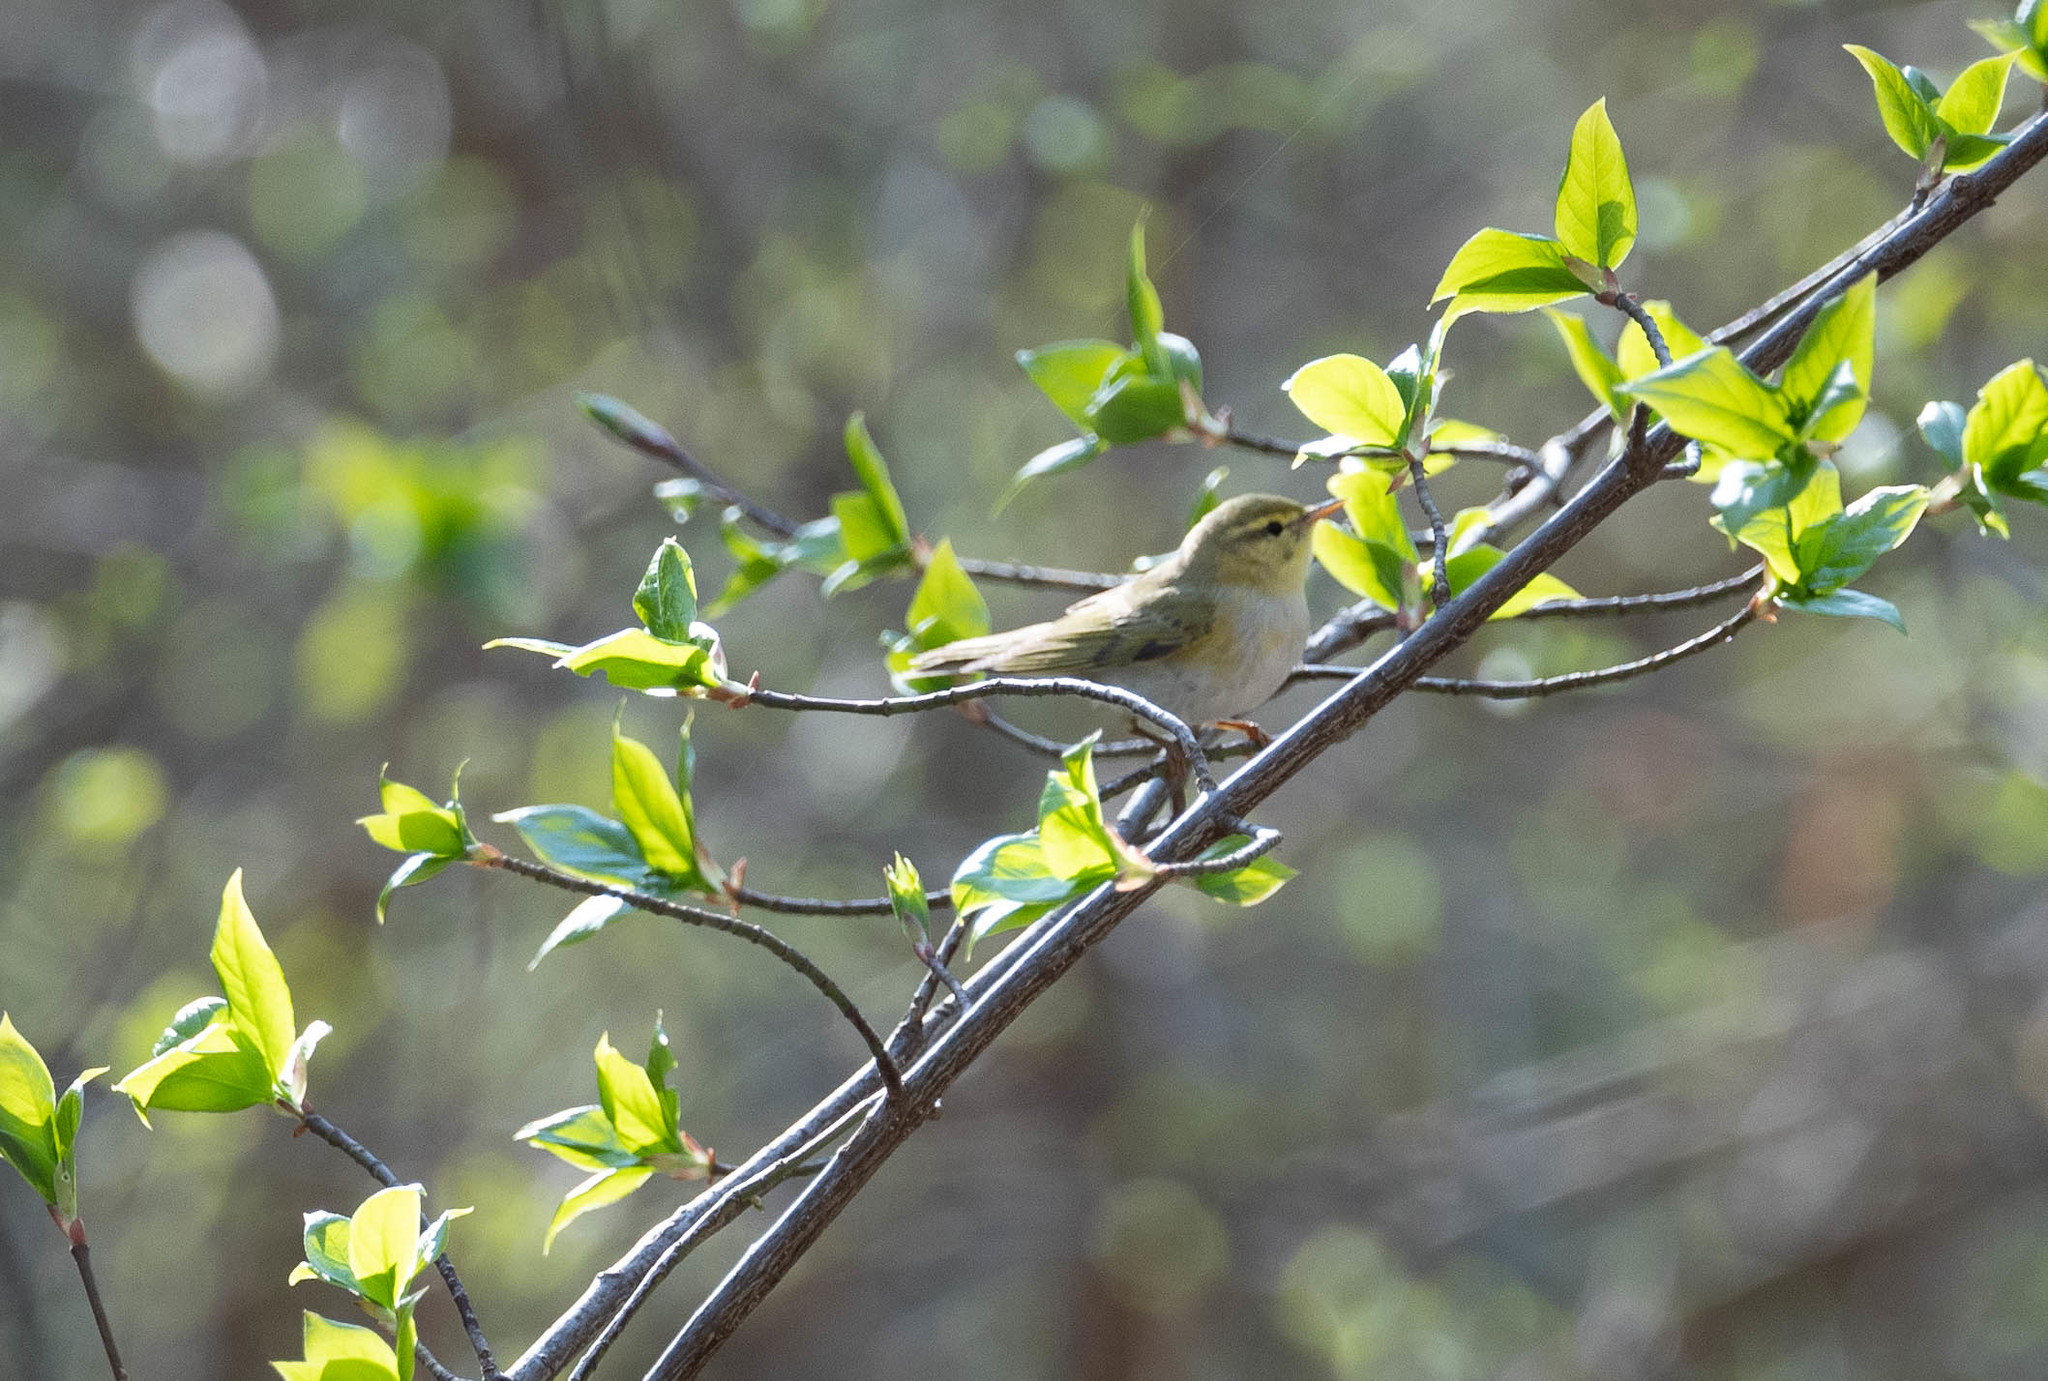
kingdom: Animalia
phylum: Chordata
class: Aves
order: Passeriformes
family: Phylloscopidae
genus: Phylloscopus
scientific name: Phylloscopus sibillatrix
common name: Wood warbler
